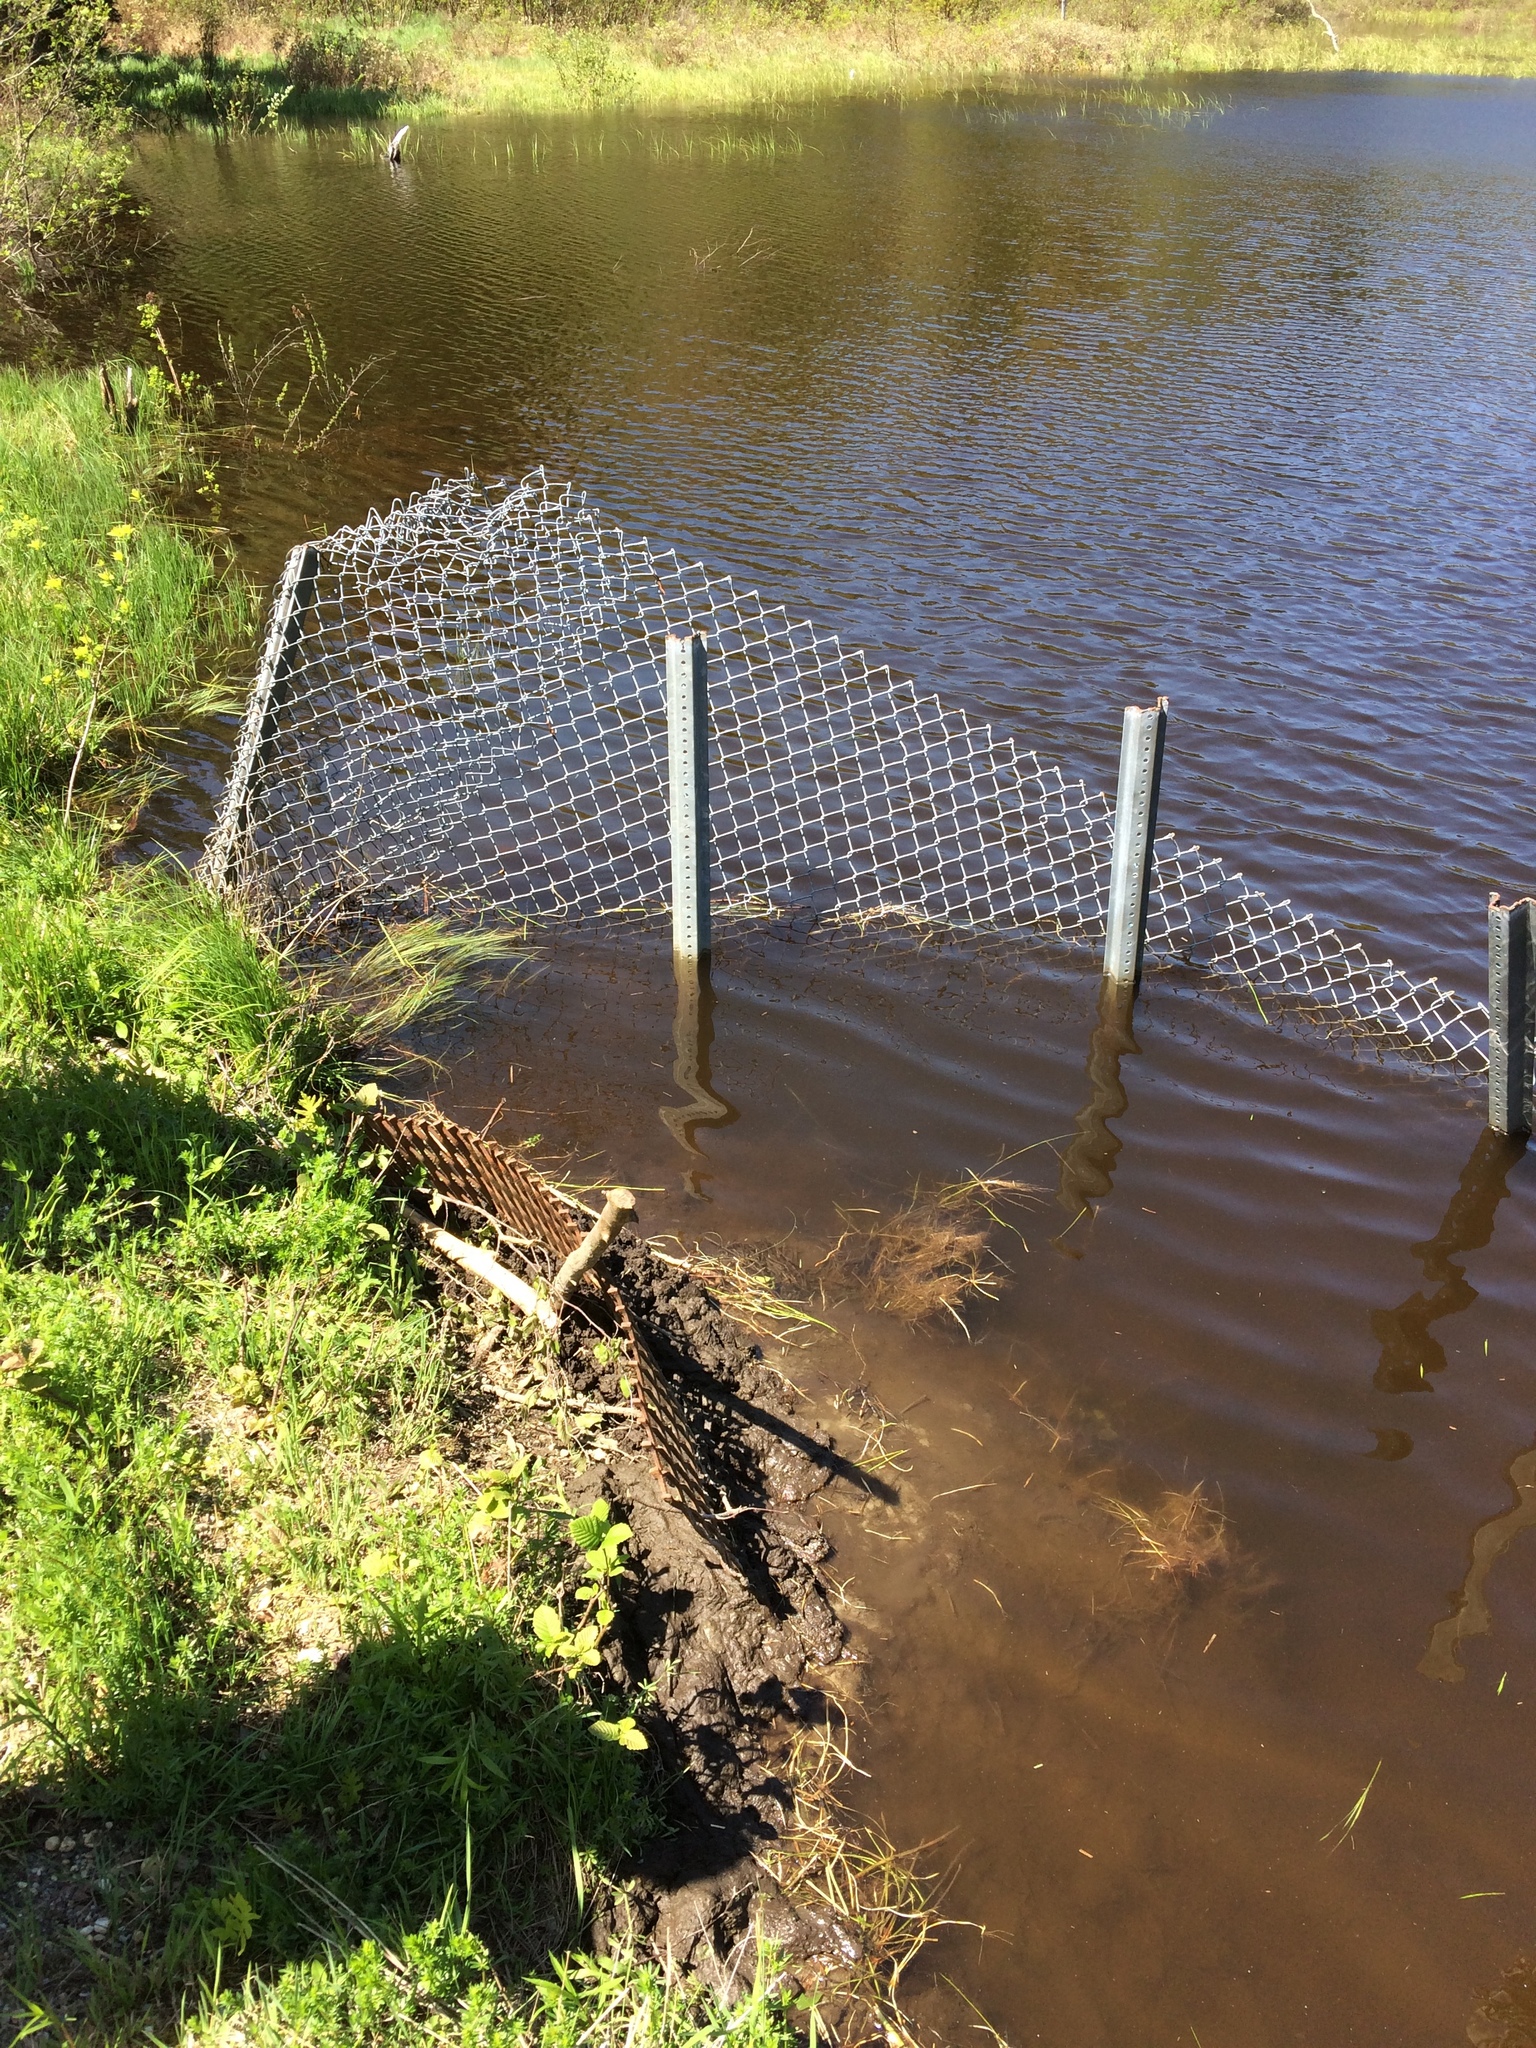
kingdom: Animalia
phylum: Chordata
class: Mammalia
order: Rodentia
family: Castoridae
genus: Castor
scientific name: Castor canadensis
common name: American beaver
